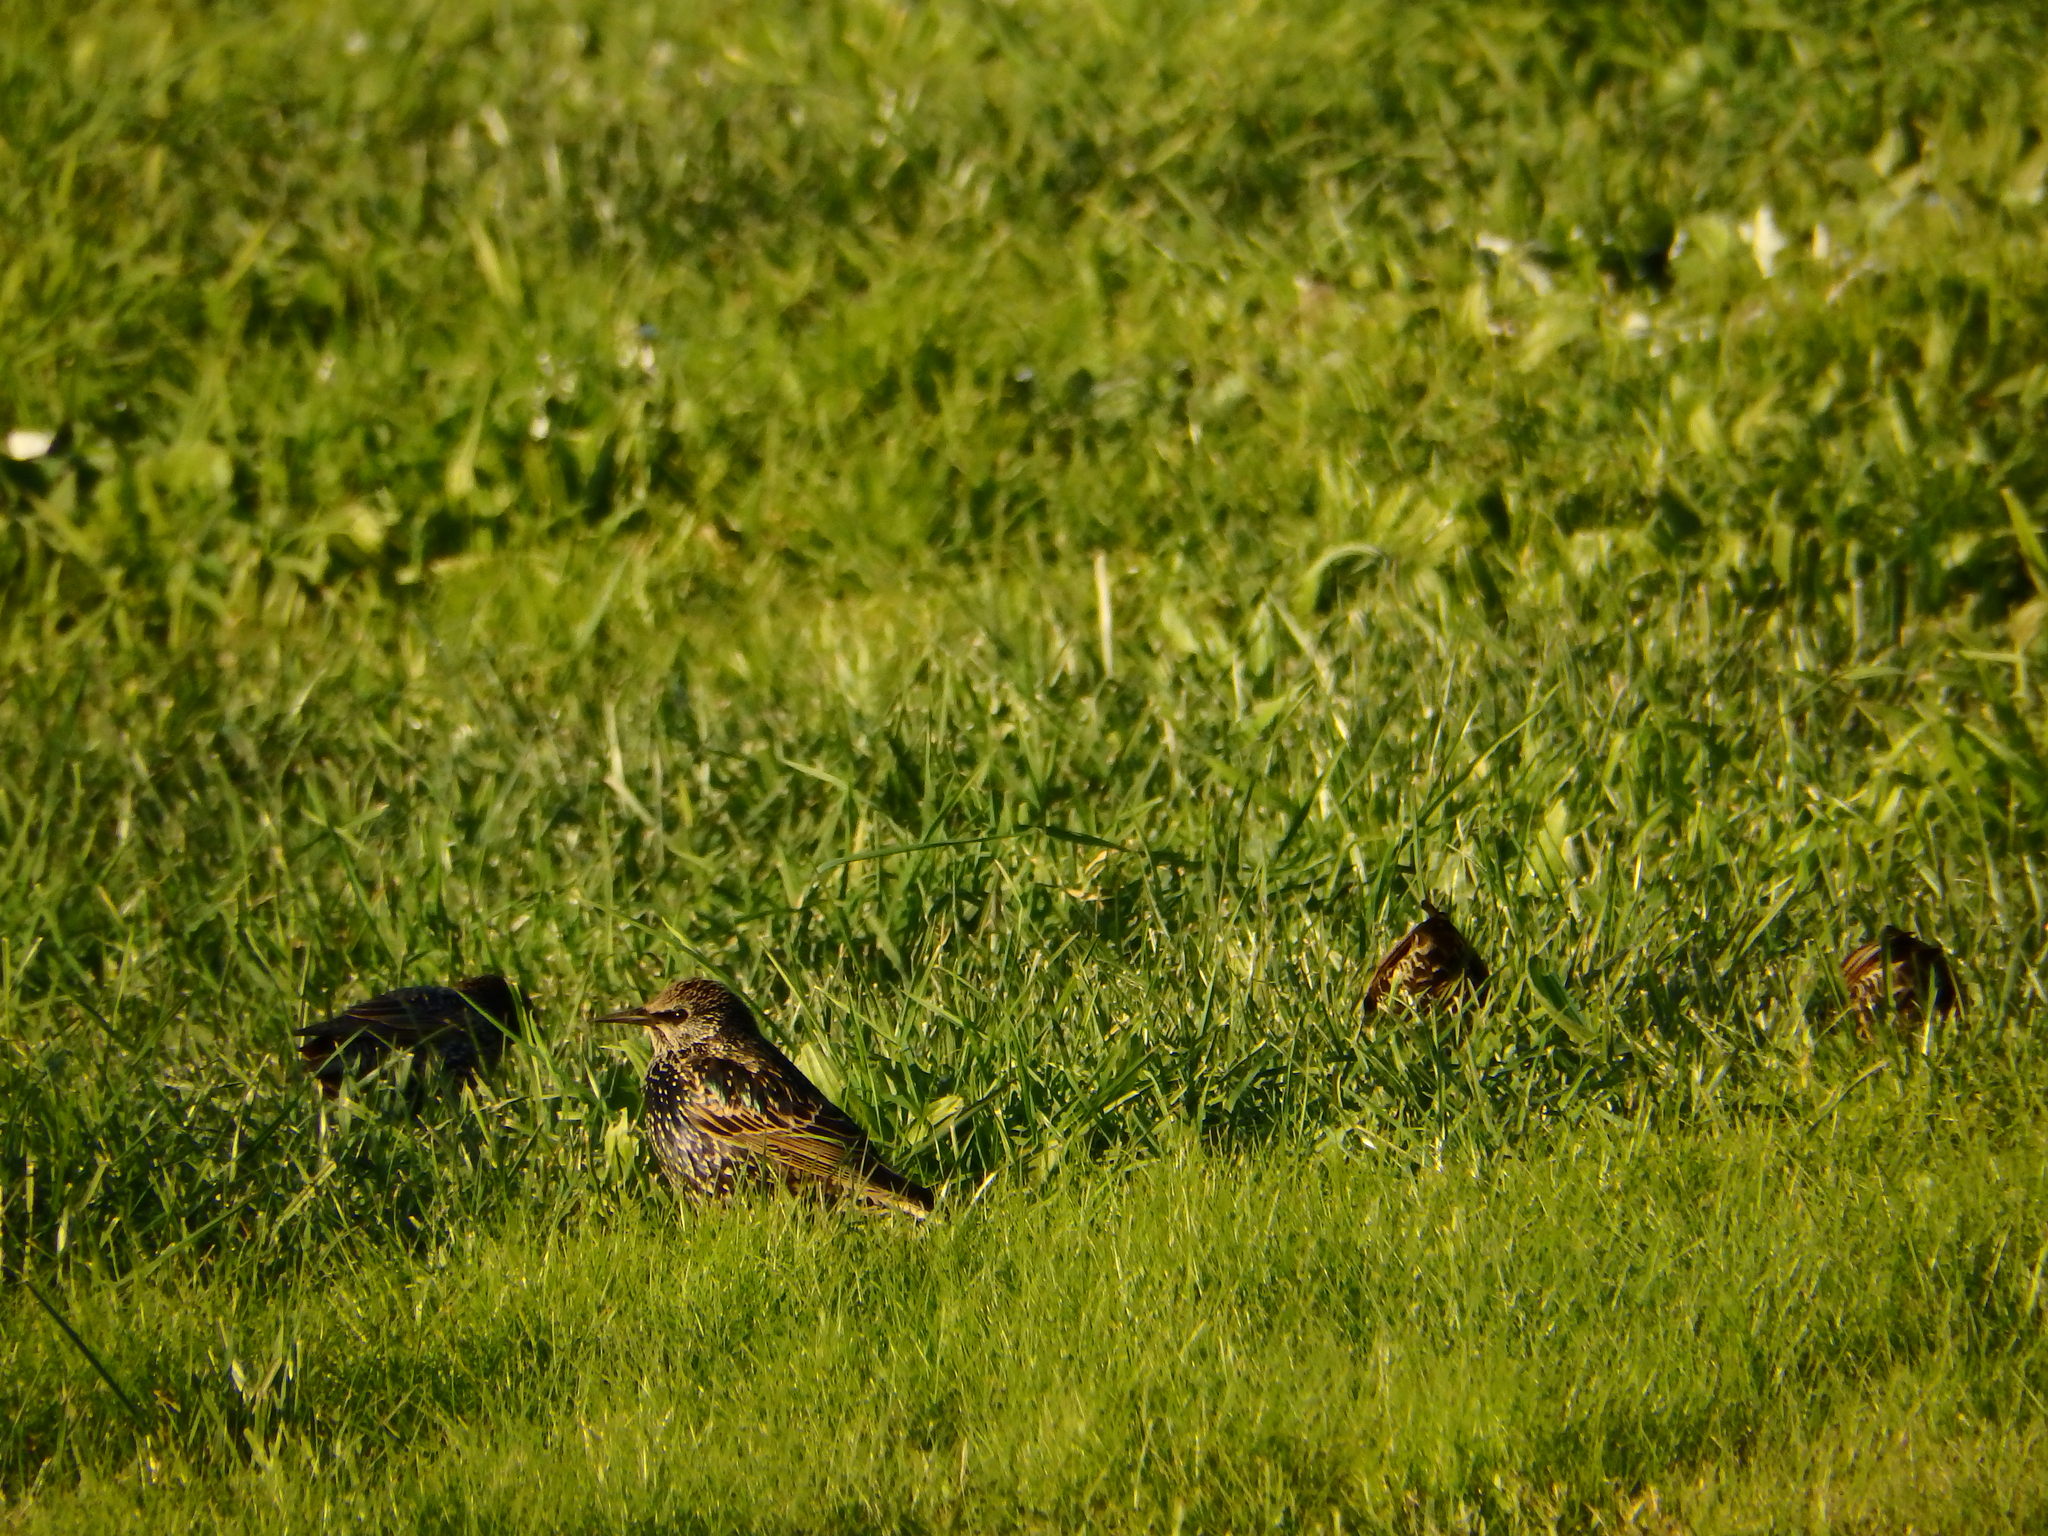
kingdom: Animalia
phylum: Chordata
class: Aves
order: Passeriformes
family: Sturnidae
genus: Sturnus
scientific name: Sturnus vulgaris
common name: Common starling
